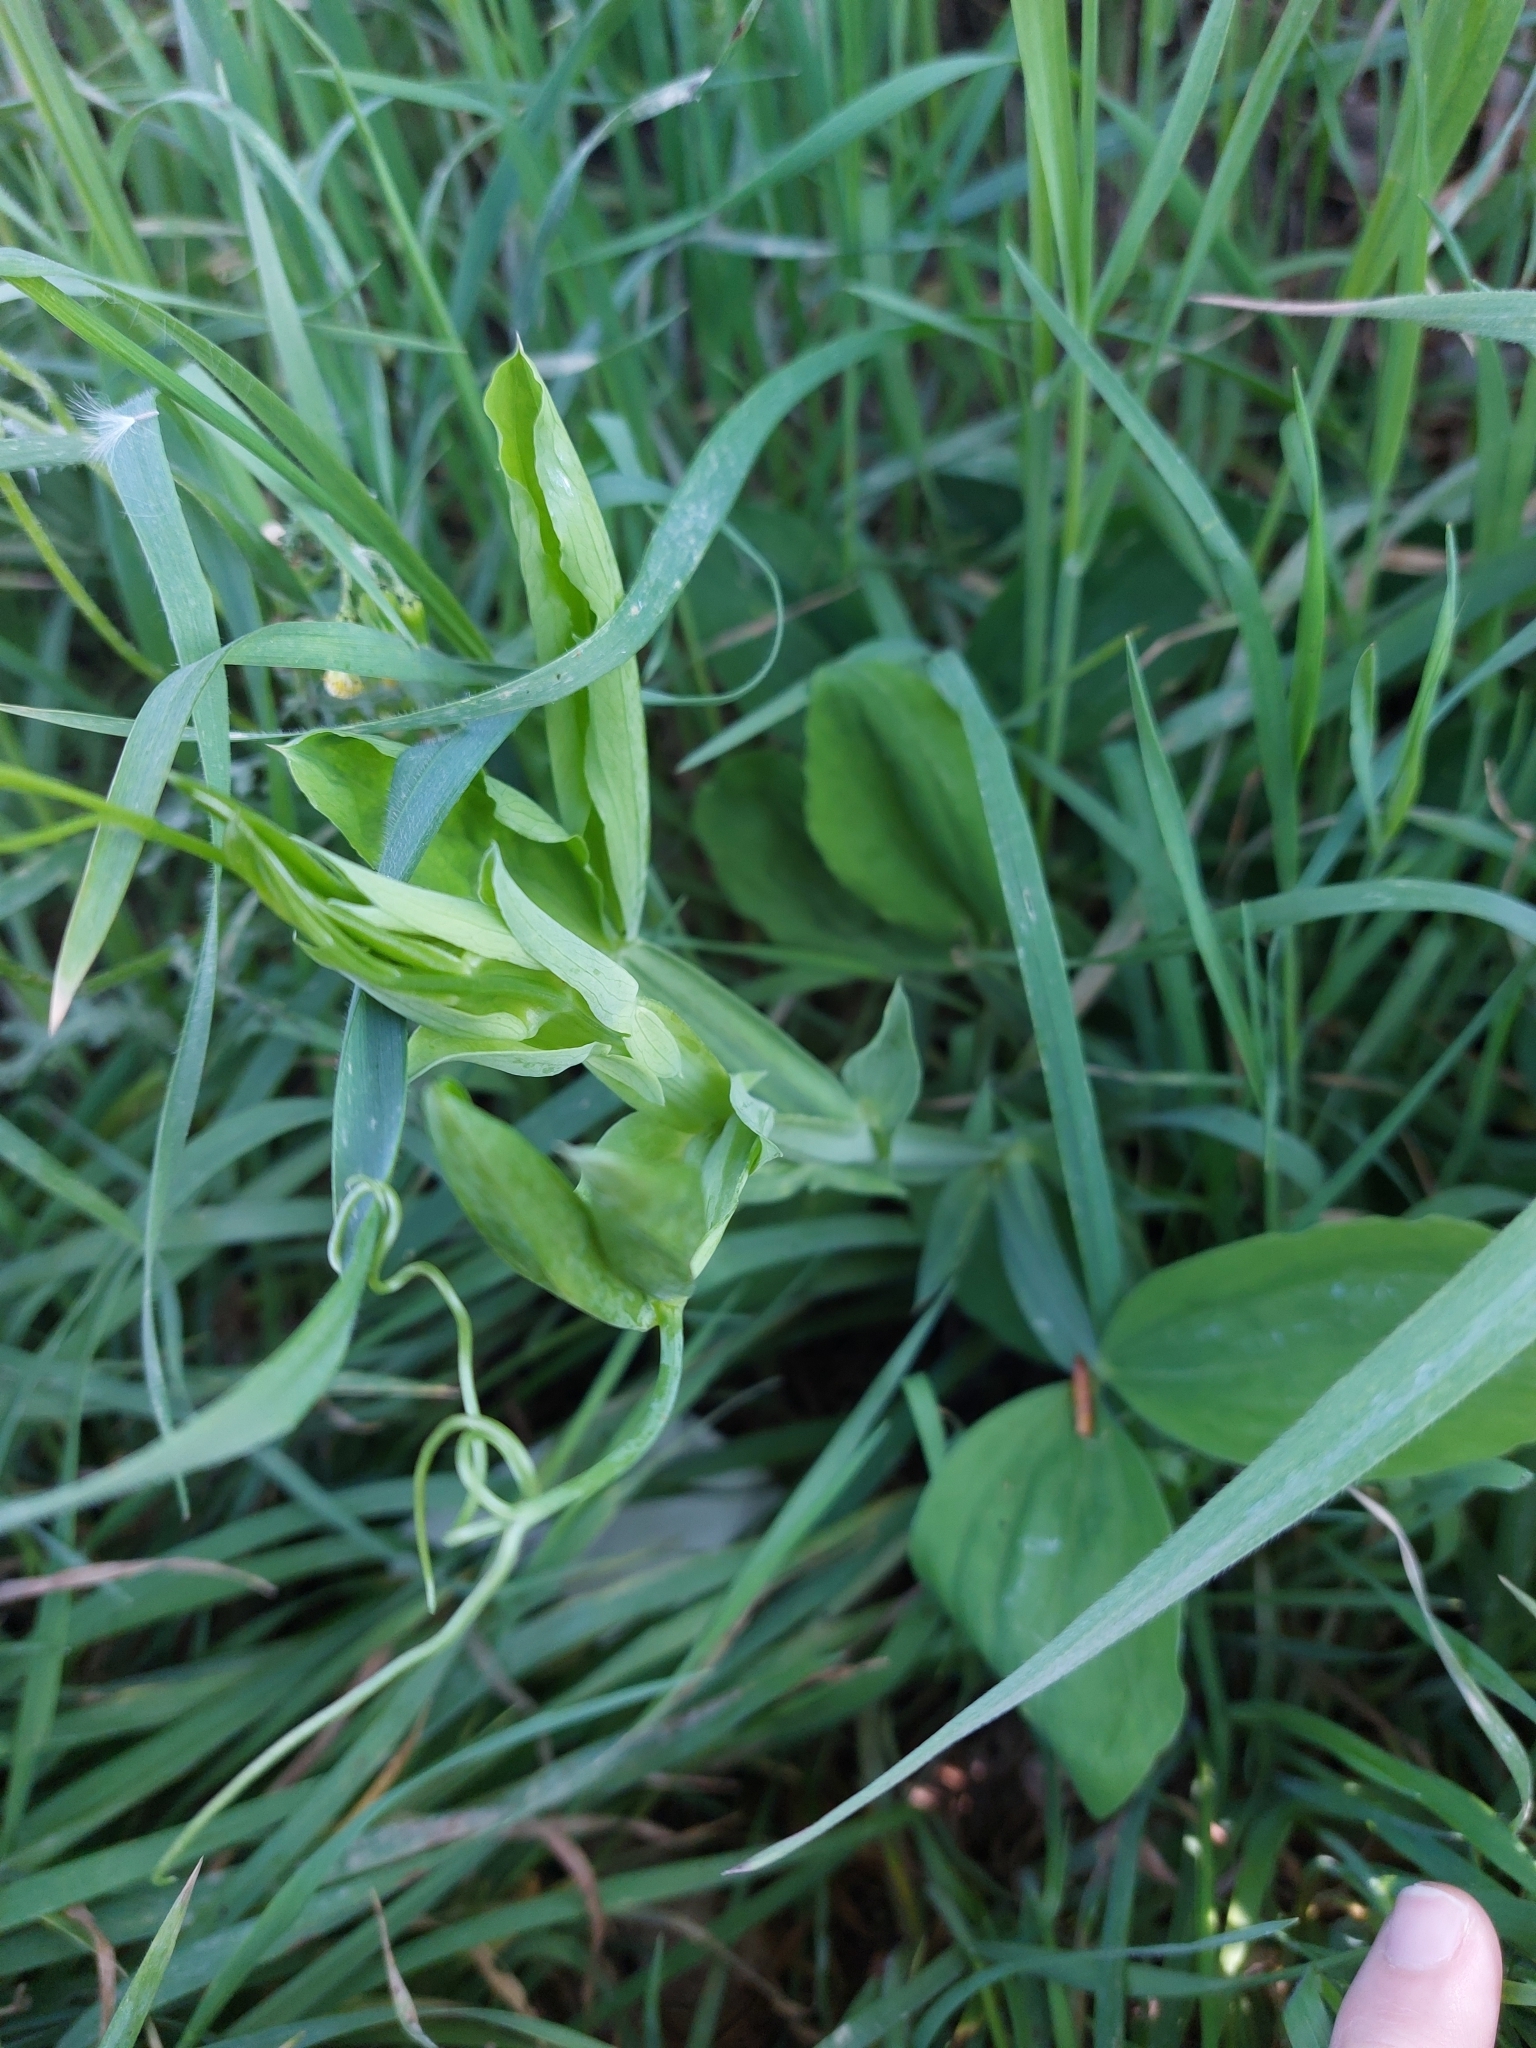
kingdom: Plantae
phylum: Tracheophyta
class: Magnoliopsida
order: Fabales
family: Fabaceae
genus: Lathyrus
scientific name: Lathyrus latifolius
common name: Perennial pea
